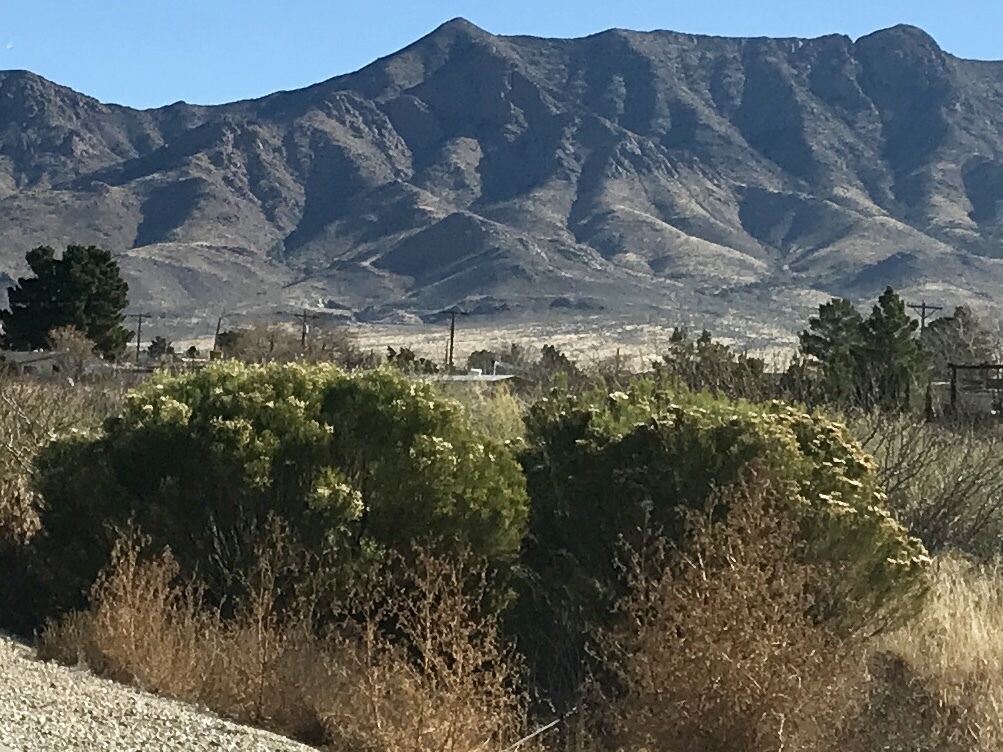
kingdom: Plantae
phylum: Tracheophyta
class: Magnoliopsida
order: Asterales
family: Asteraceae
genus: Baccharis
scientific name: Baccharis sarothroides
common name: Desert-broom
